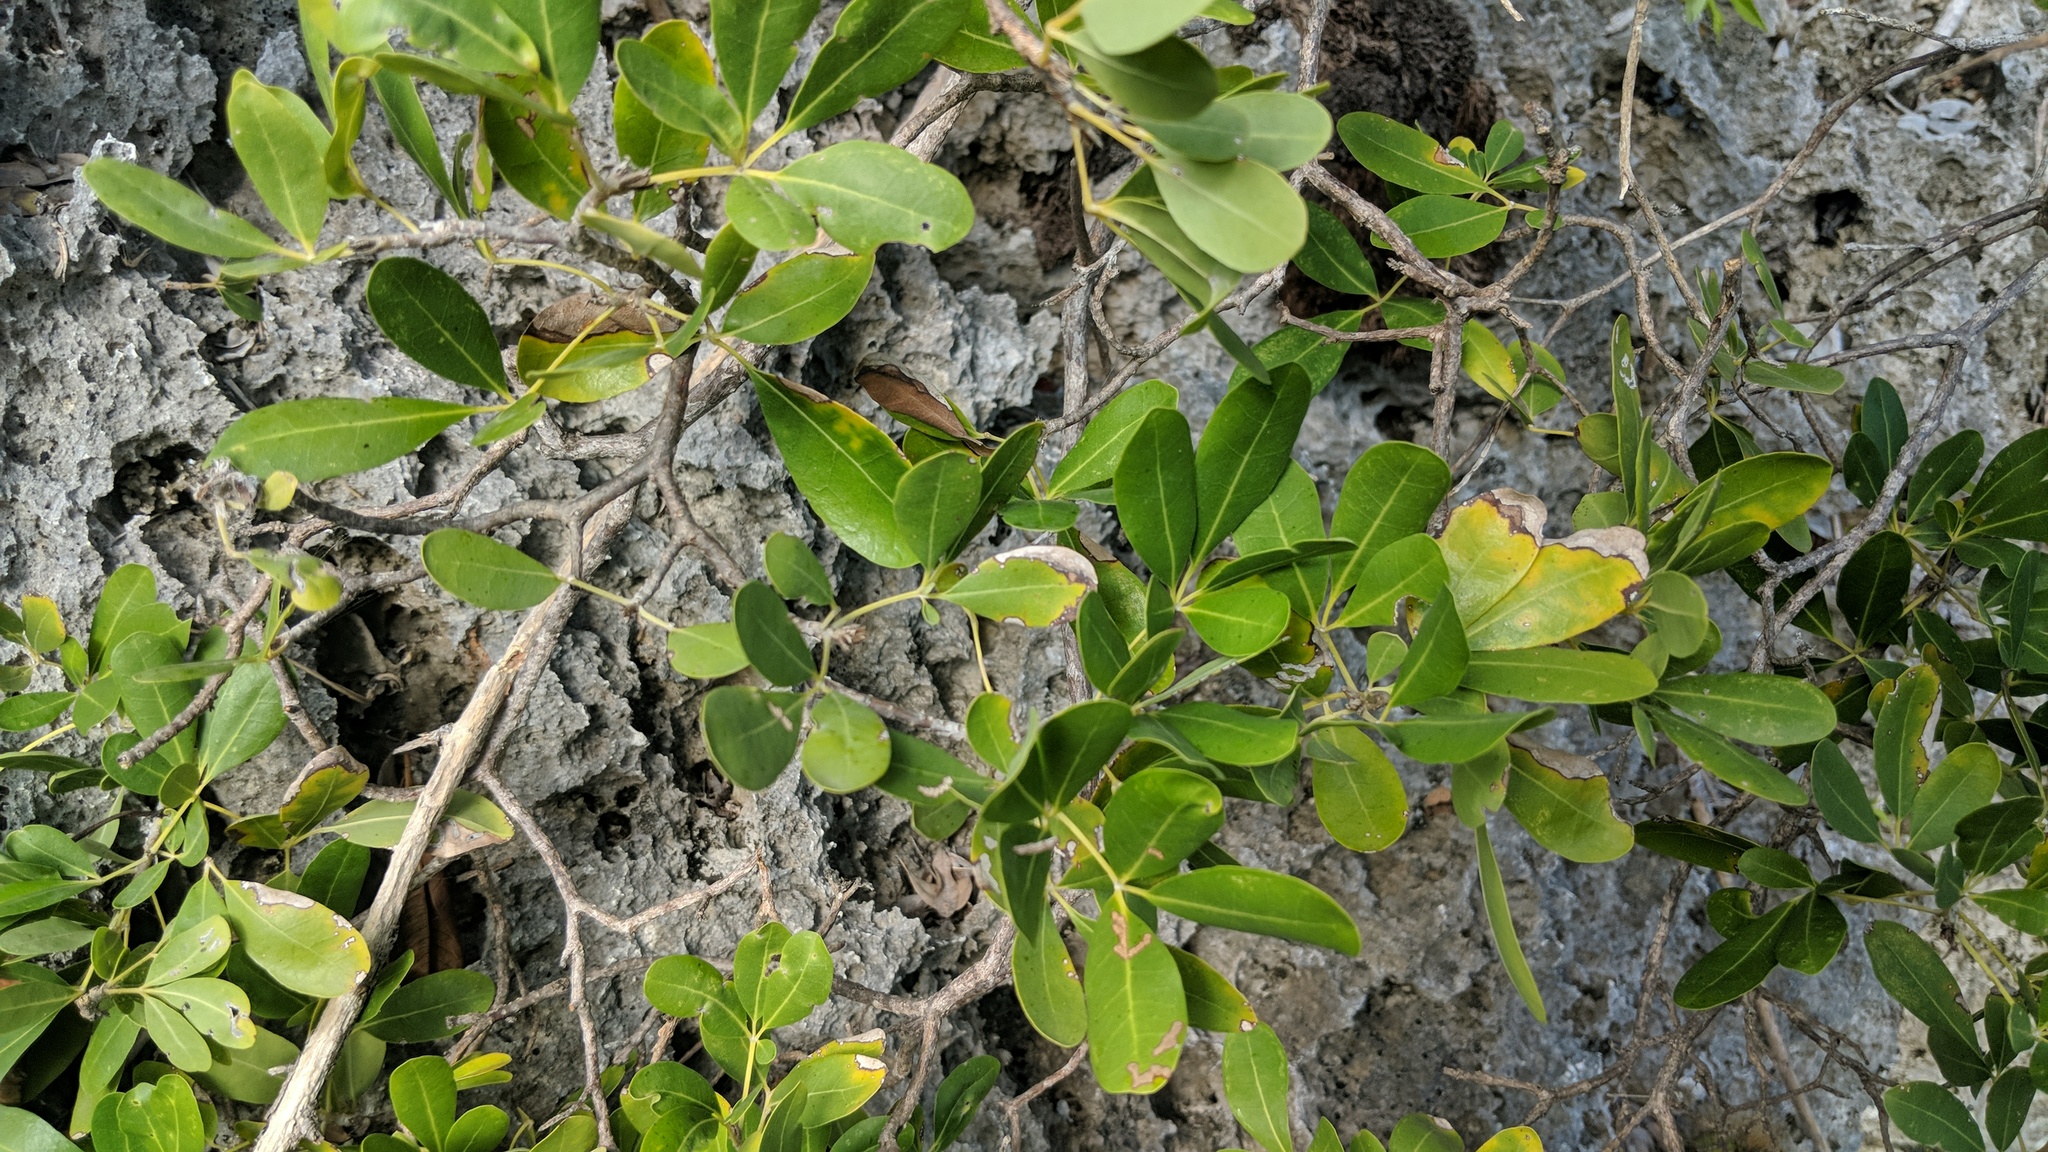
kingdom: Plantae
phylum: Tracheophyta
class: Magnoliopsida
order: Lamiales
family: Bignoniaceae
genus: Tabebuia
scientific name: Tabebuia heterophylla
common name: White cedar
